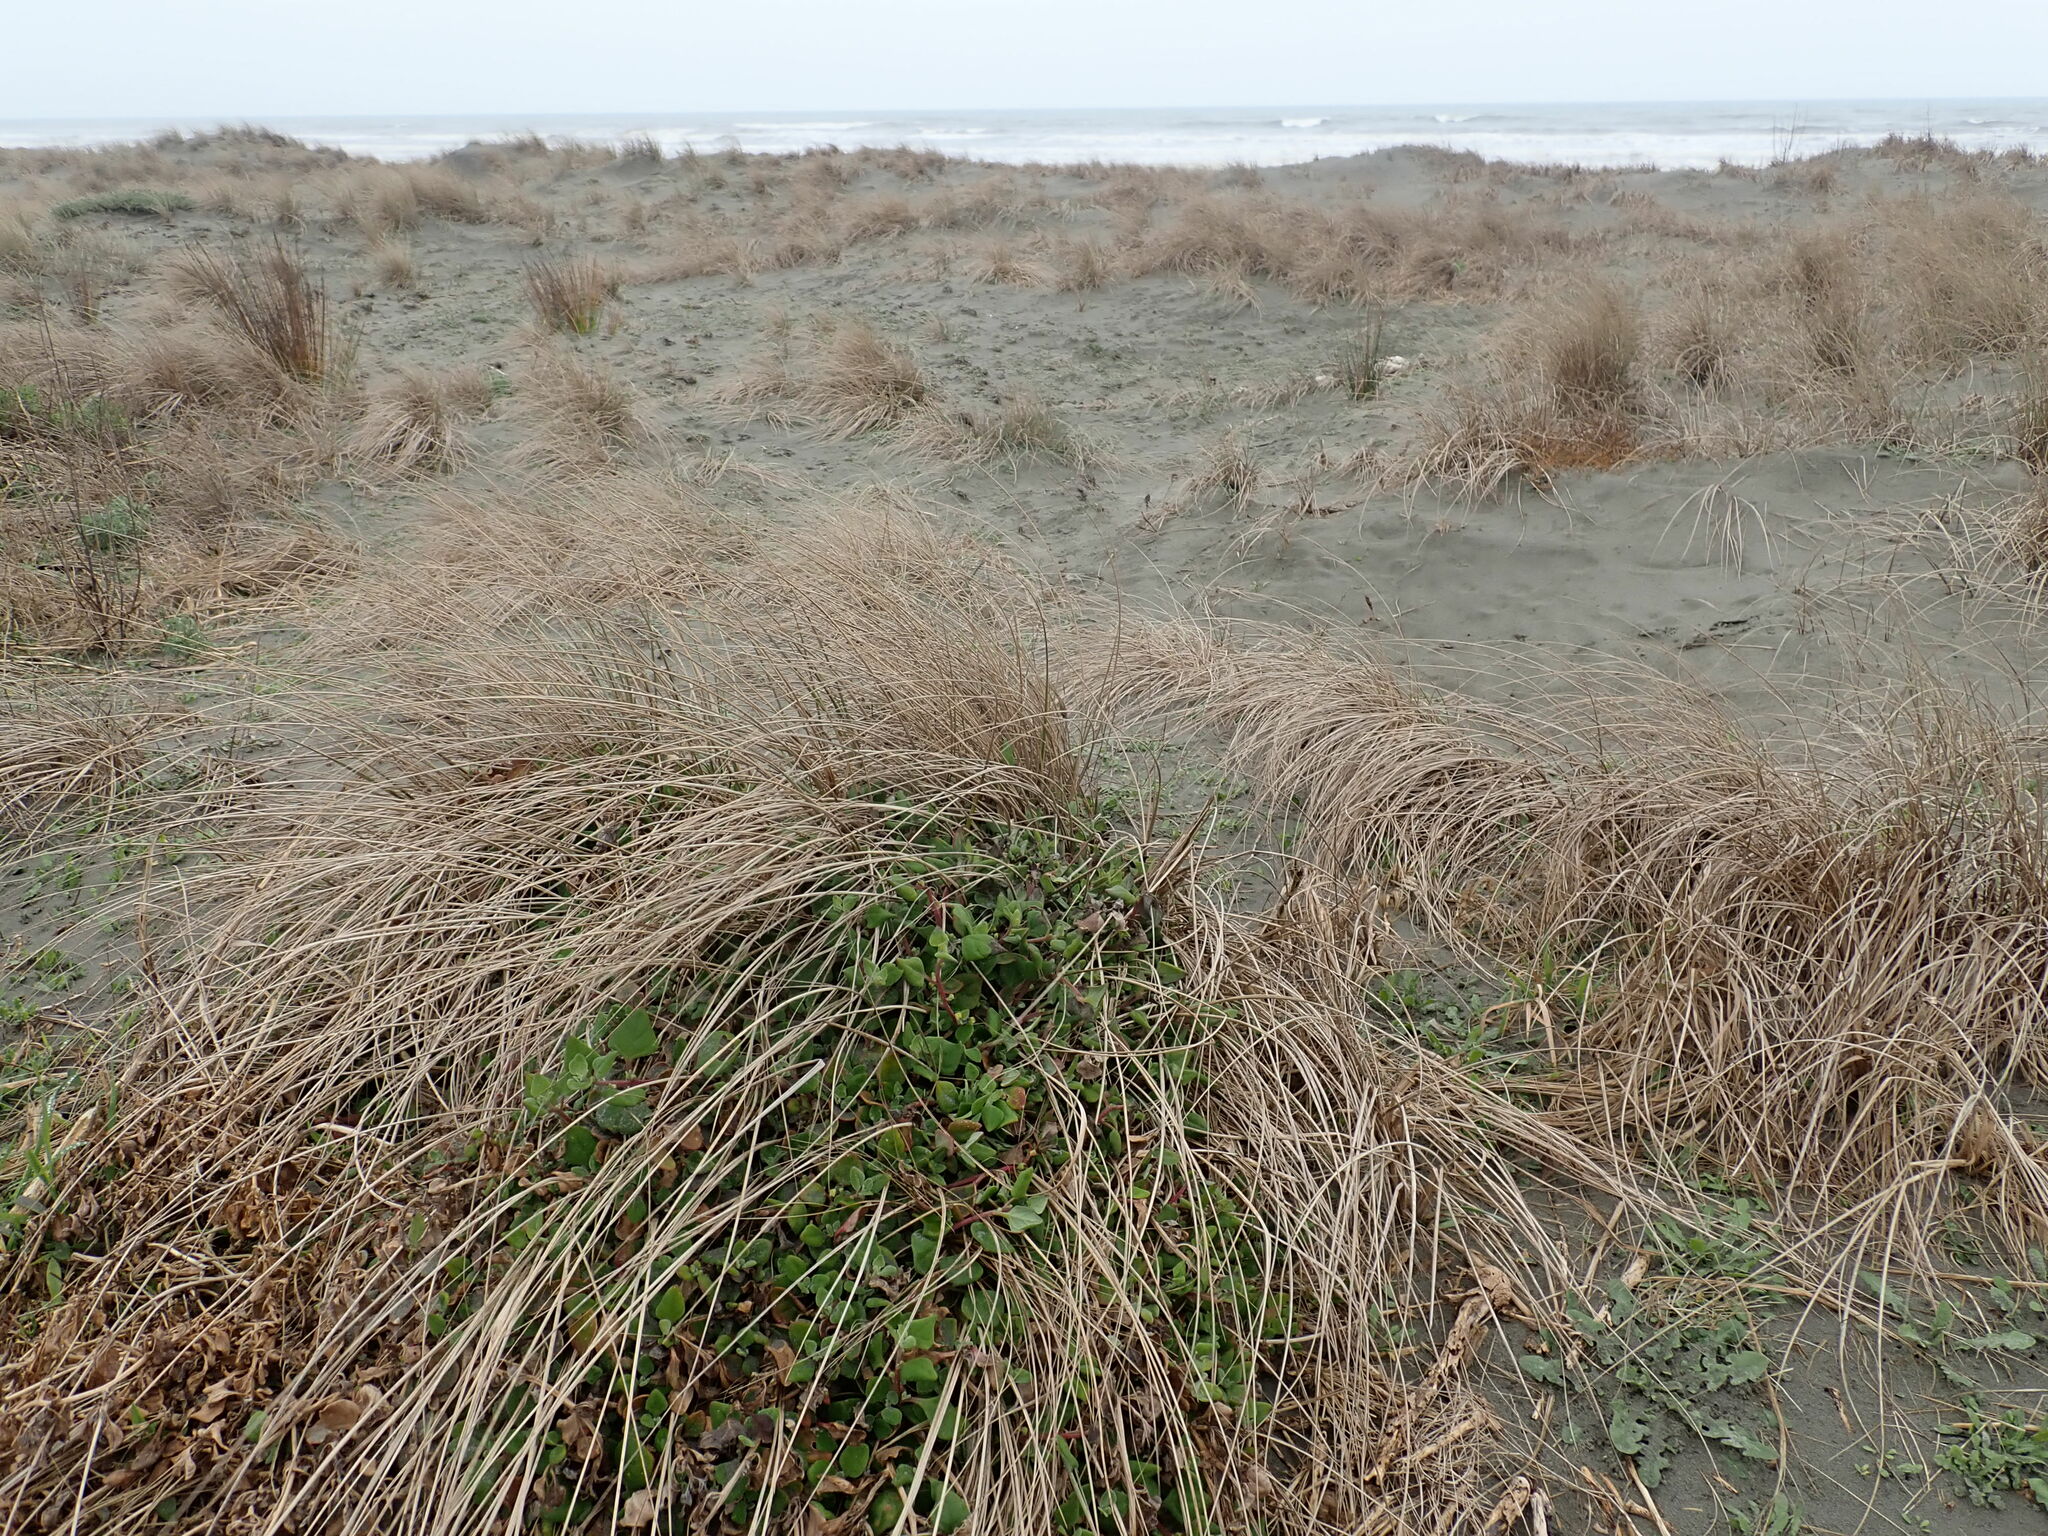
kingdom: Plantae
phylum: Tracheophyta
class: Magnoliopsida
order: Caryophyllales
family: Aizoaceae
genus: Tetragonia
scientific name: Tetragonia implexicoma
